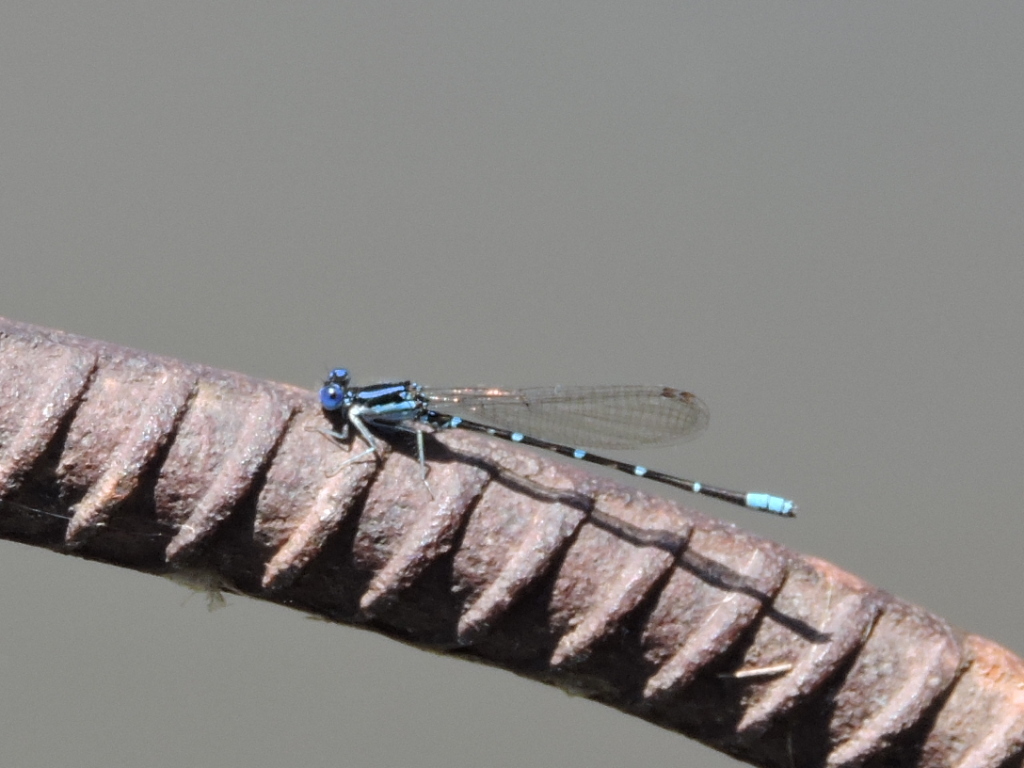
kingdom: Animalia
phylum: Arthropoda
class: Insecta
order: Odonata
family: Coenagrionidae
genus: Argia
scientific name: Argia sedula
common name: Blue-ringed dancer
